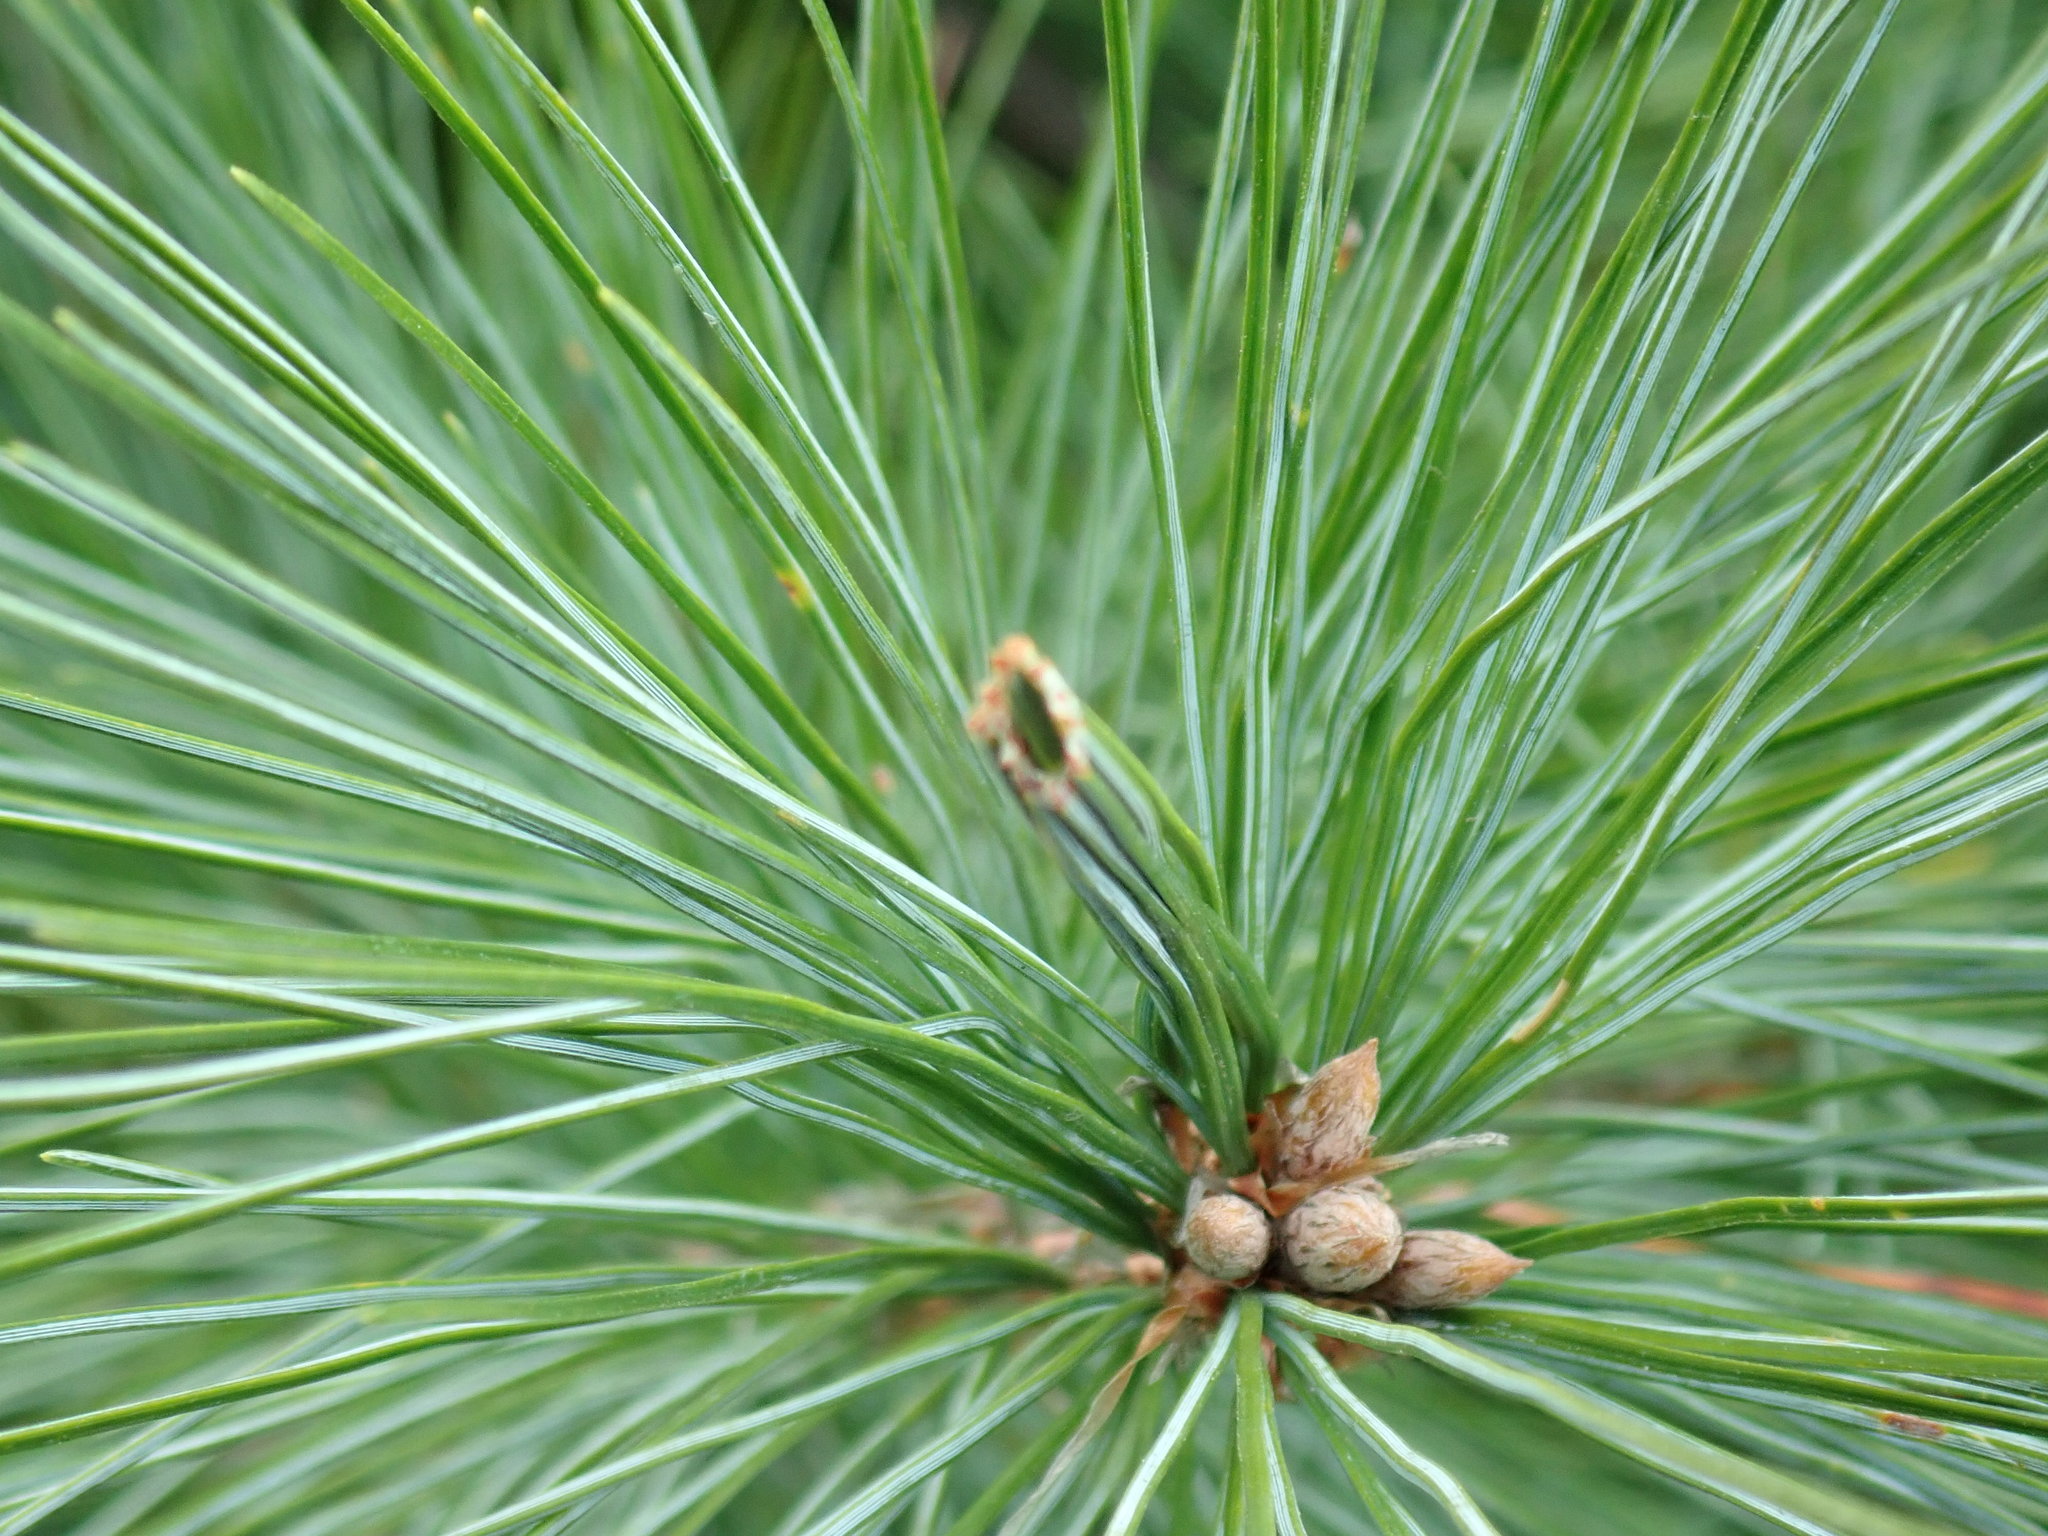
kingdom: Animalia
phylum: Arthropoda
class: Insecta
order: Lepidoptera
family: Tortricidae
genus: Argyrotaenia
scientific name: Argyrotaenia pinatubana
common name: Pine tube moth
